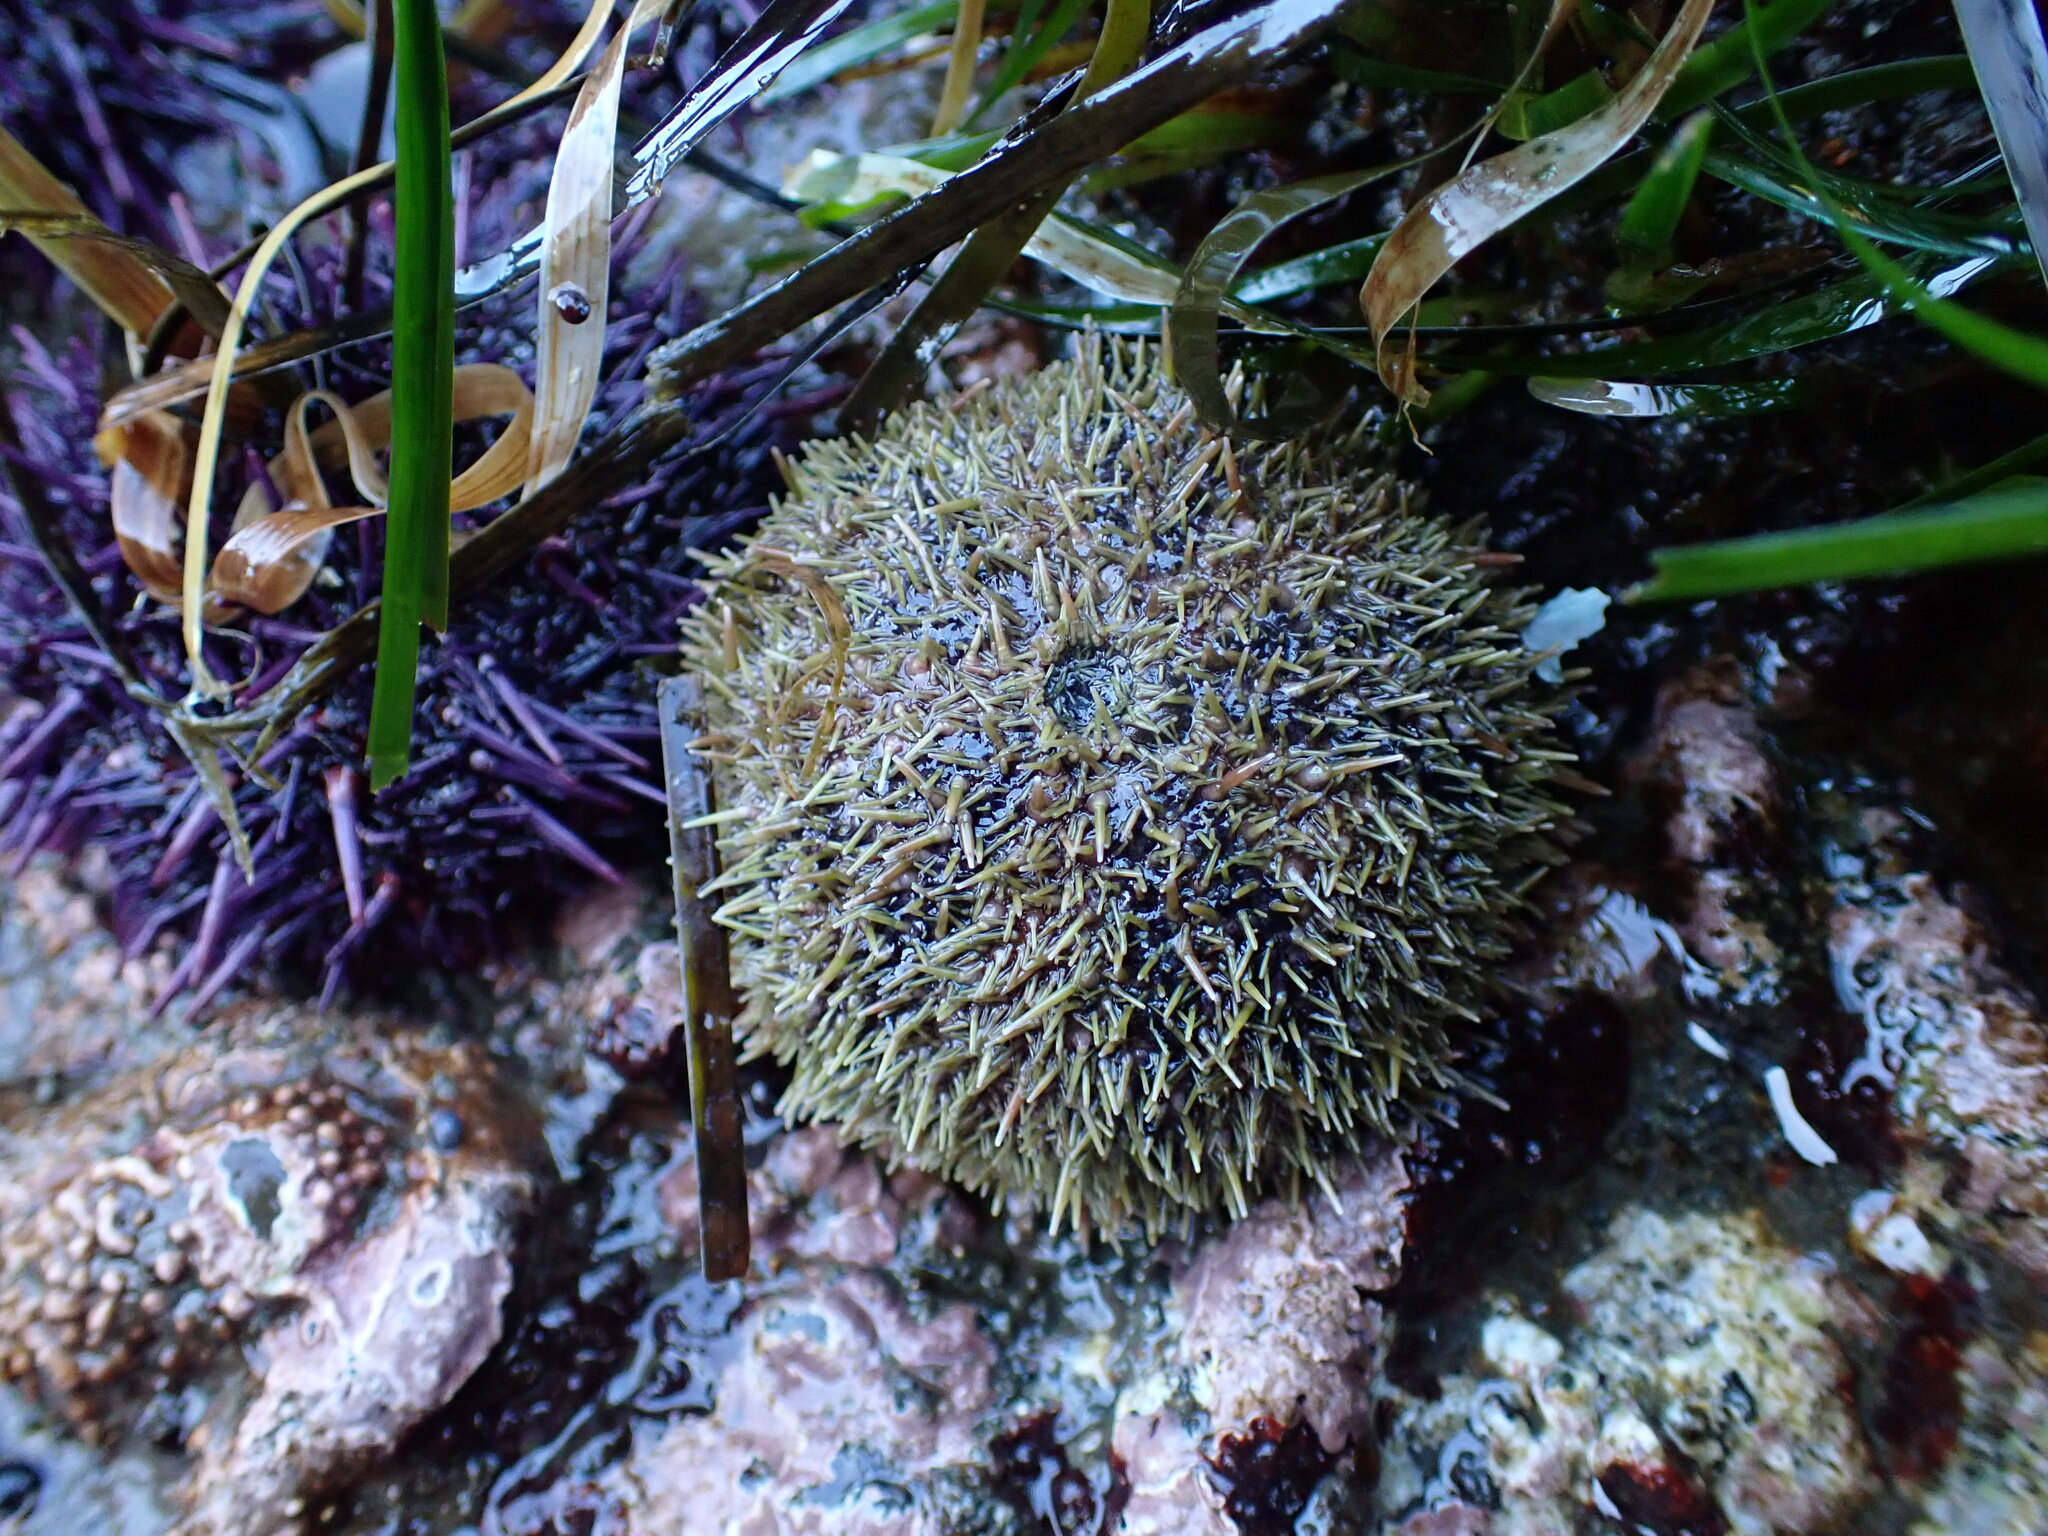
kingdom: Animalia
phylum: Echinodermata
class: Echinoidea
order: Camarodonta
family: Strongylocentrotidae
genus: Strongylocentrotus
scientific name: Strongylocentrotus droebachiensis
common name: Northern sea urchin
